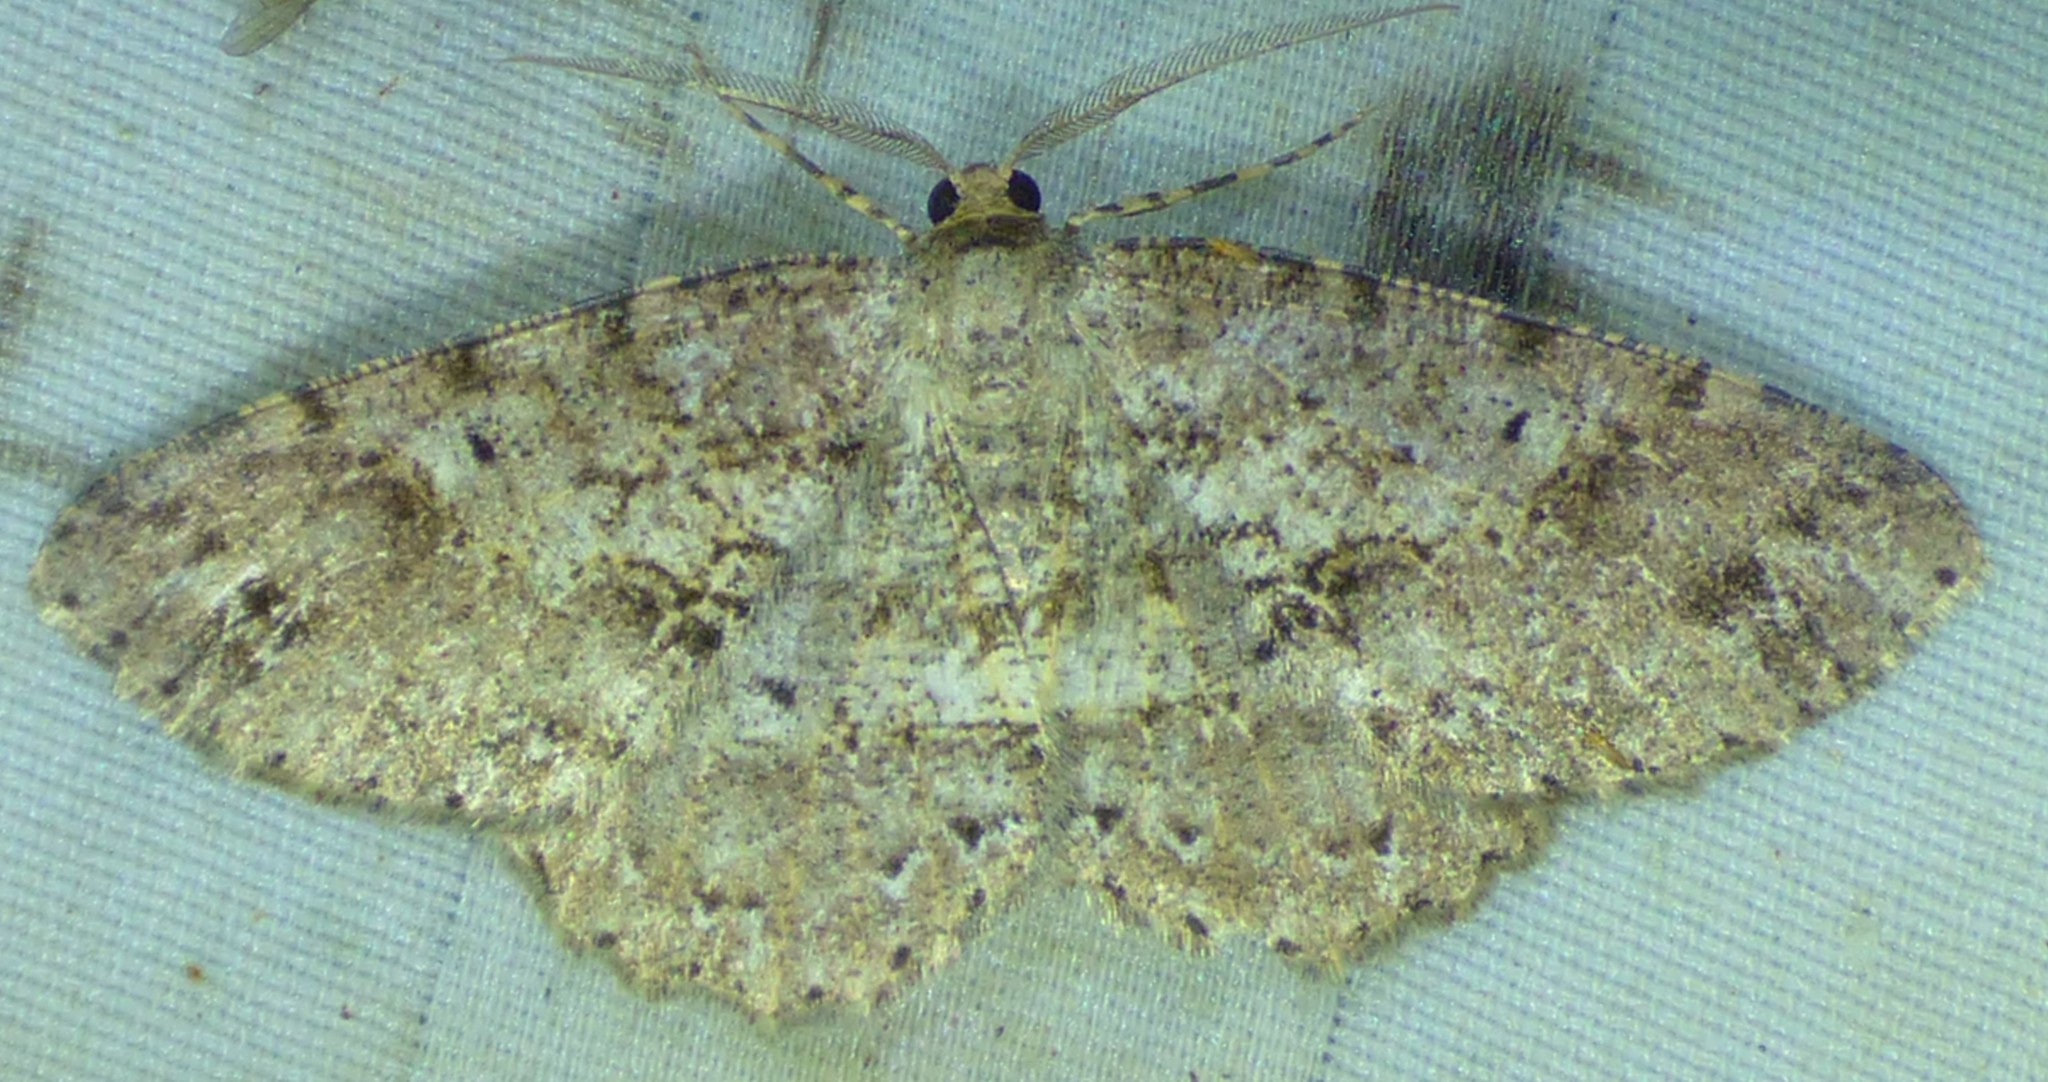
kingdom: Animalia
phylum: Arthropoda
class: Insecta
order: Lepidoptera
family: Geometridae
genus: Melanolophia
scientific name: Melanolophia canadaria
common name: Canadian melanolophia
